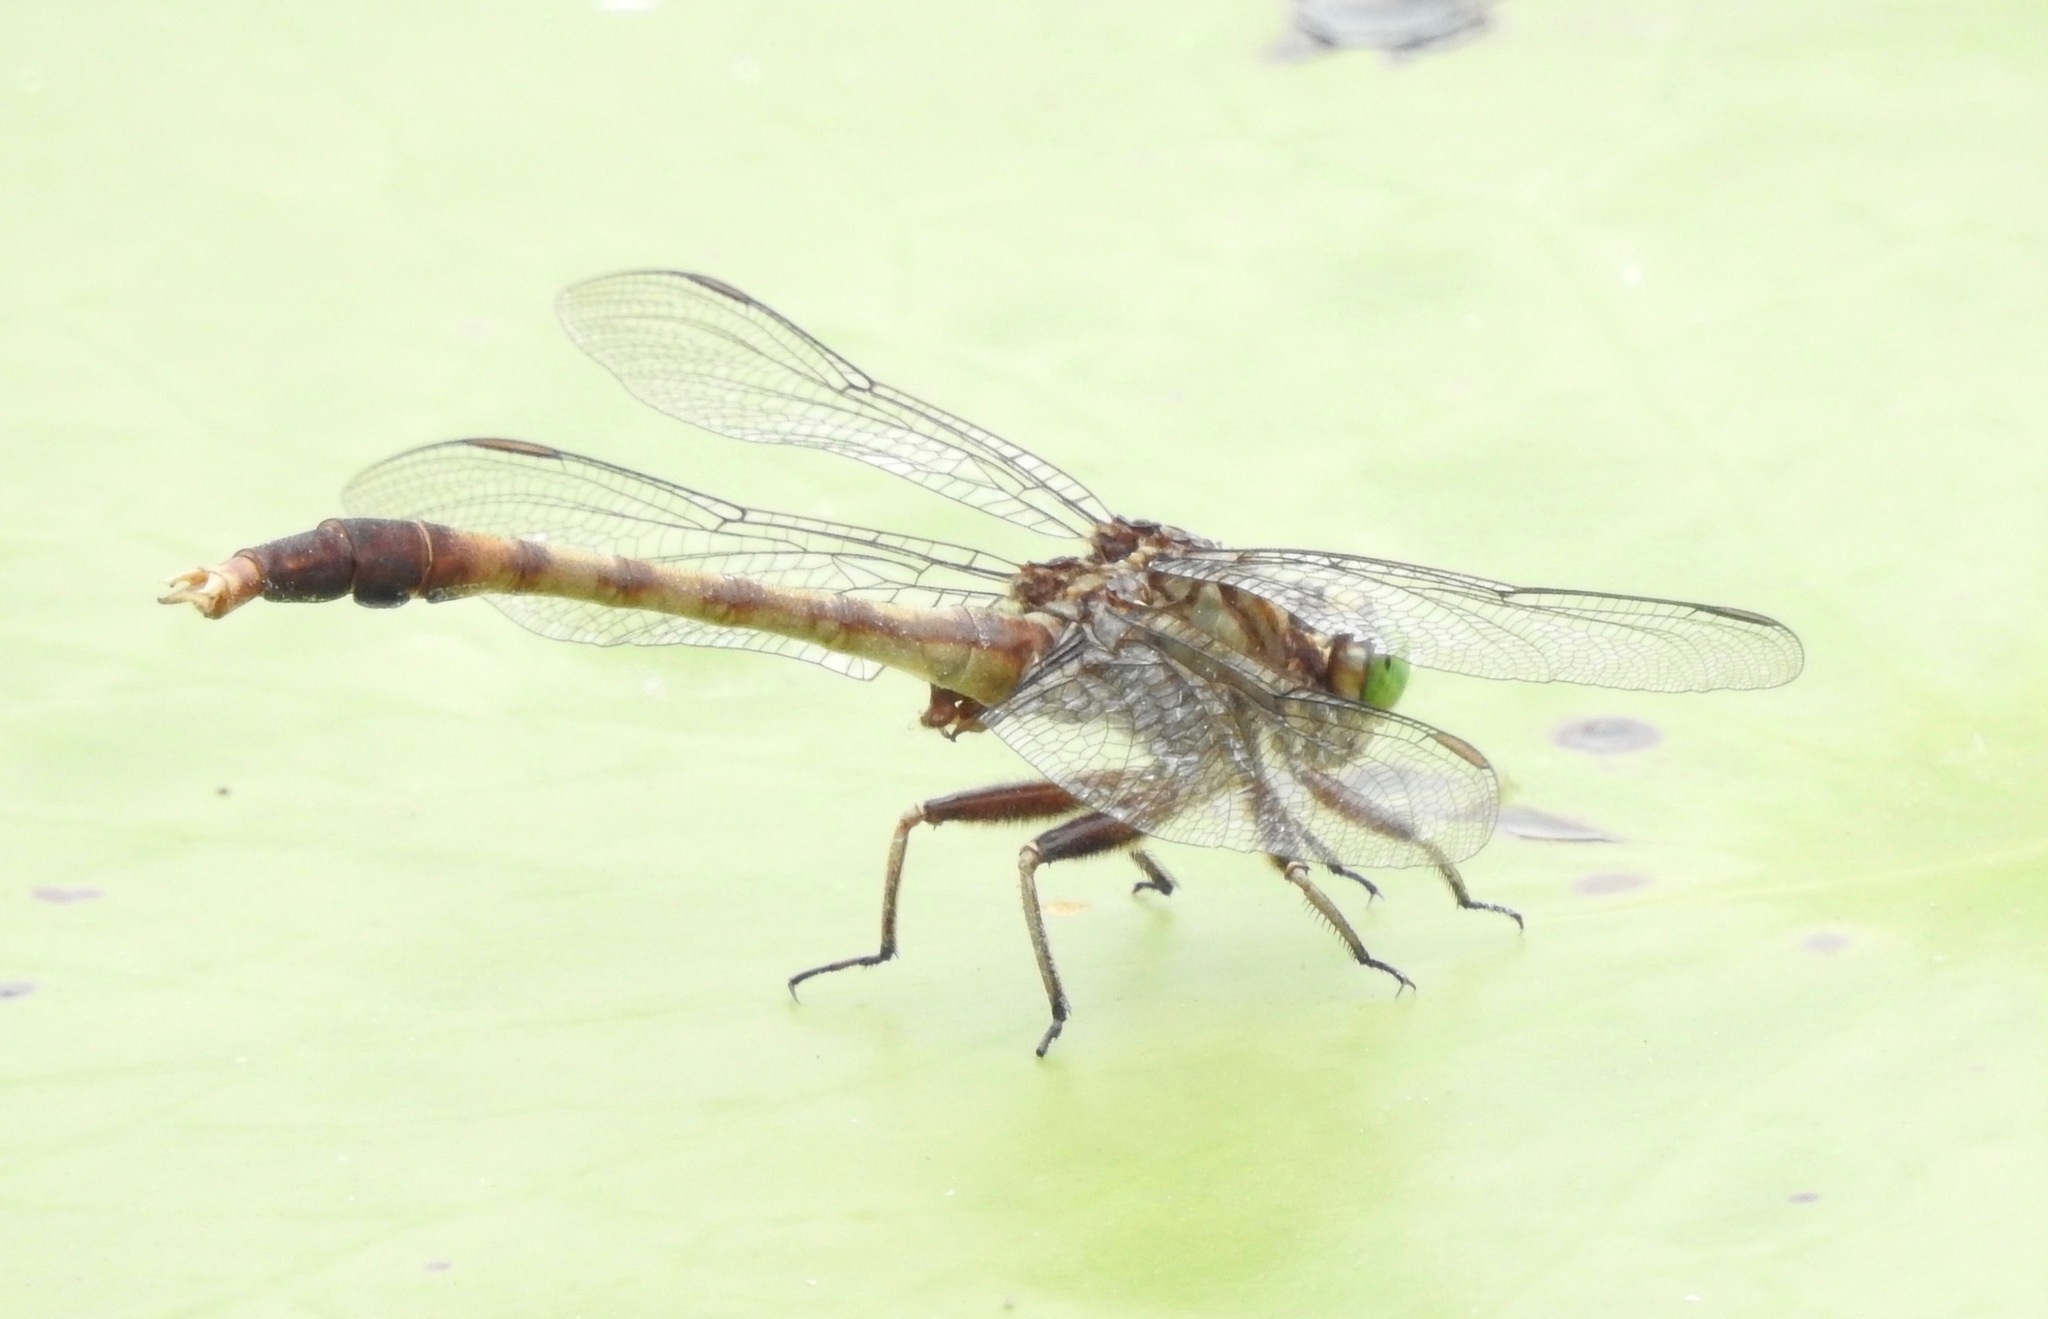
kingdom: Animalia
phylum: Arthropoda
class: Insecta
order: Odonata
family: Gomphidae
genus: Arigomphus
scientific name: Arigomphus pallidus
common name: Gray-green clubtail
